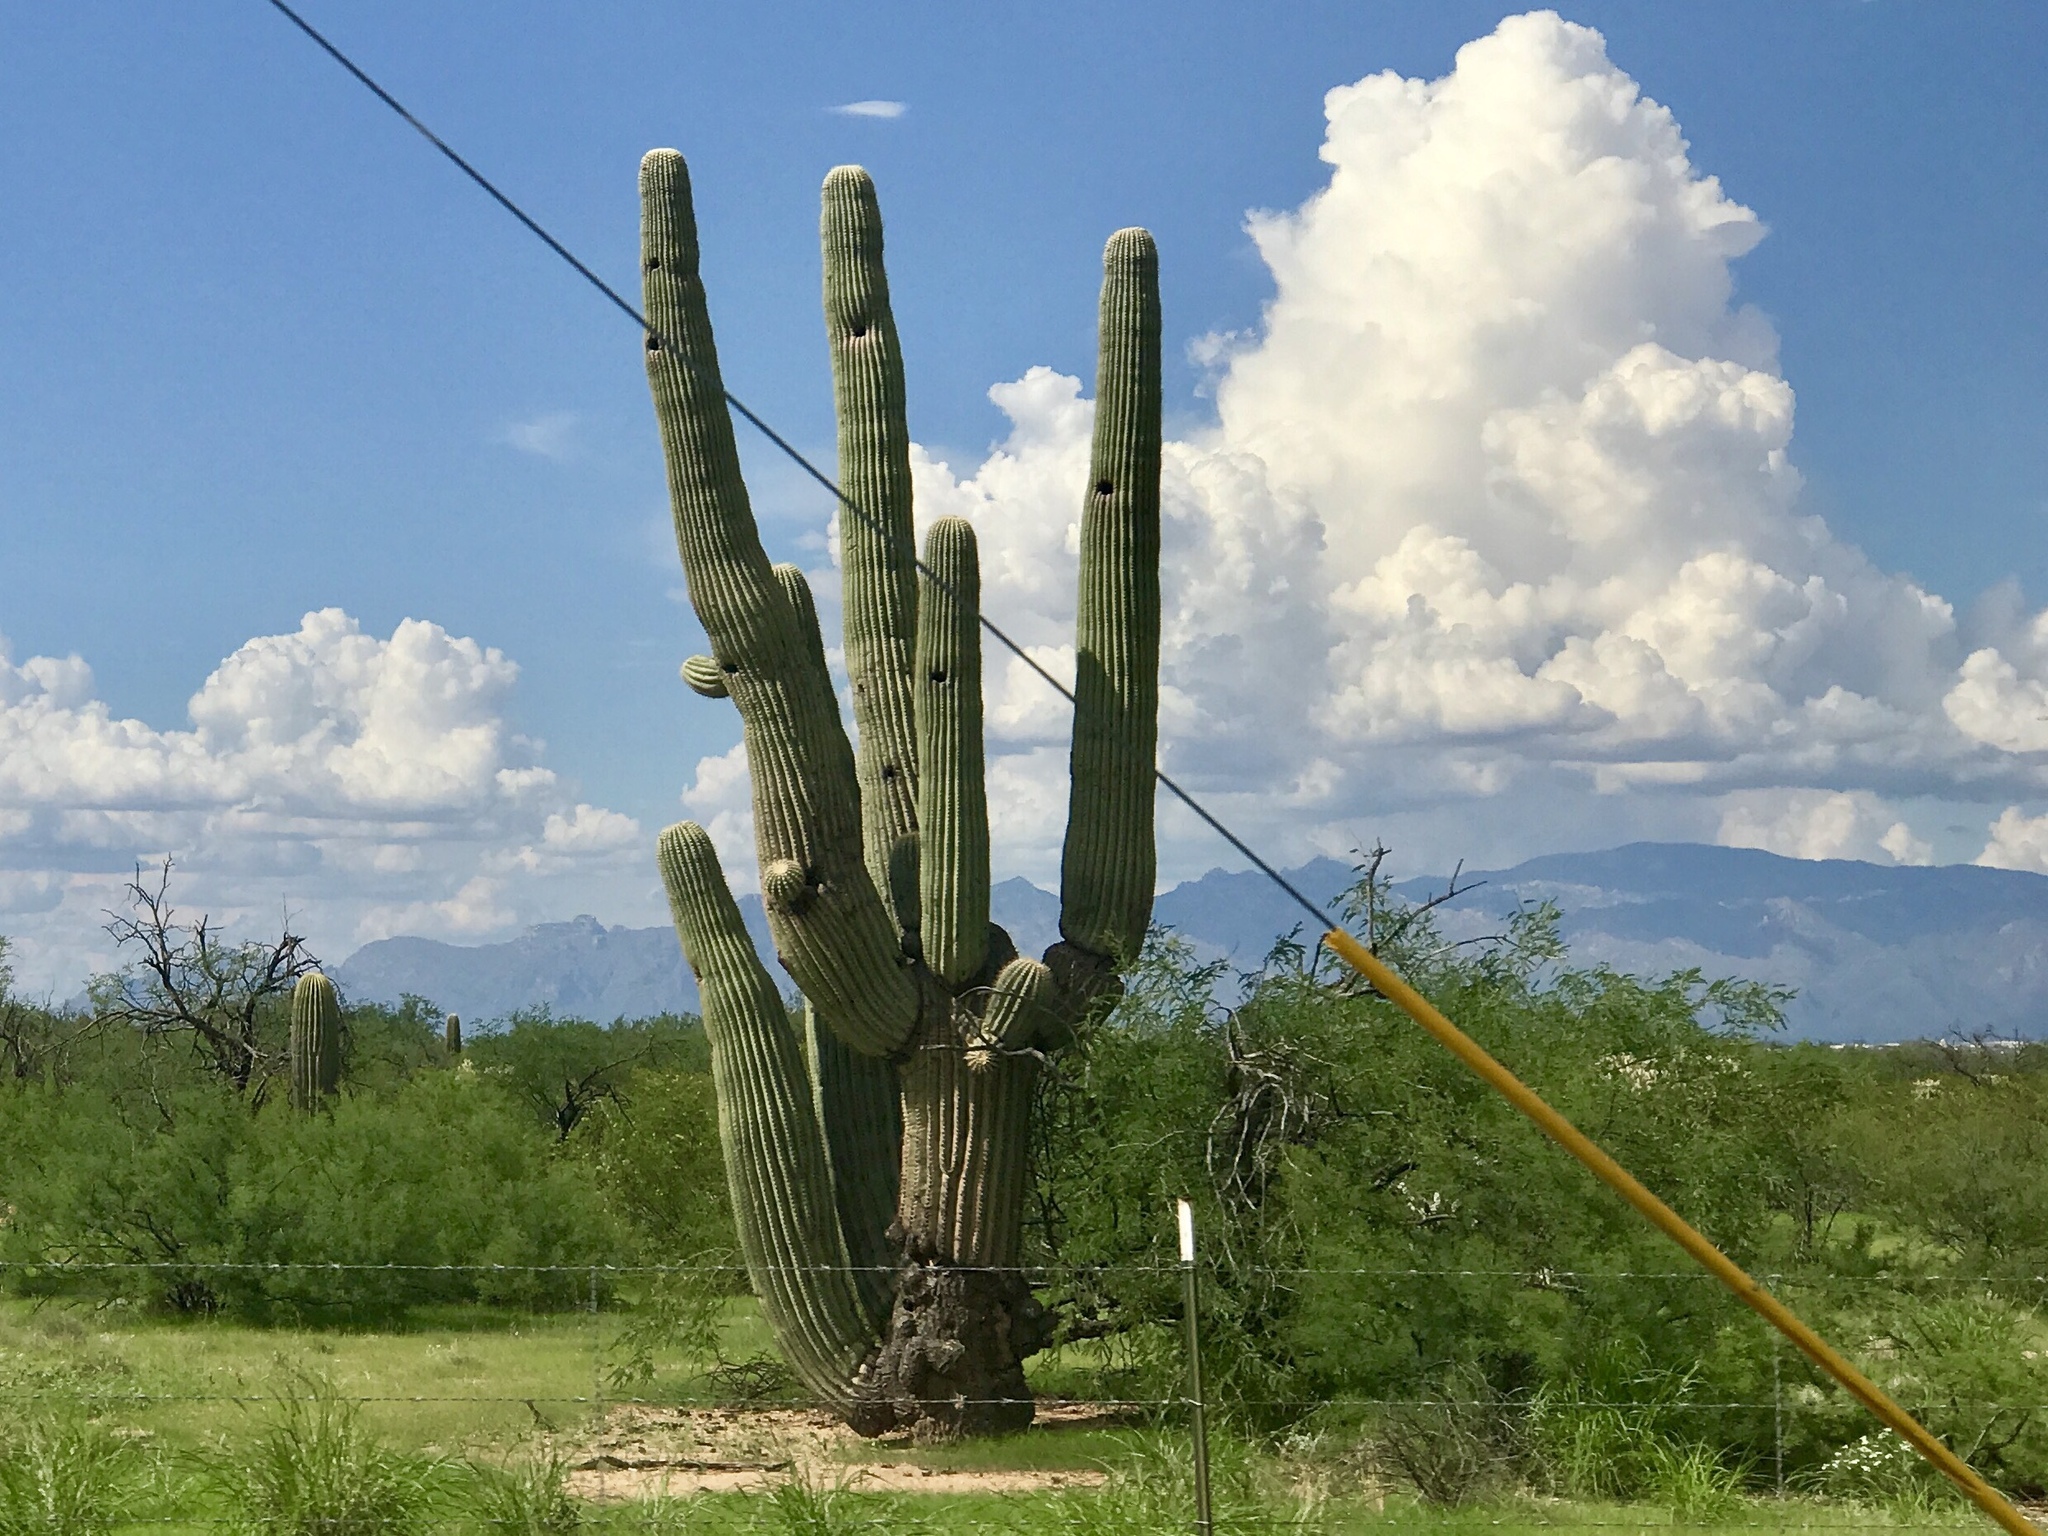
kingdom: Plantae
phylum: Tracheophyta
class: Magnoliopsida
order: Caryophyllales
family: Cactaceae
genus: Carnegiea
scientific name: Carnegiea gigantea
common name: Saguaro
